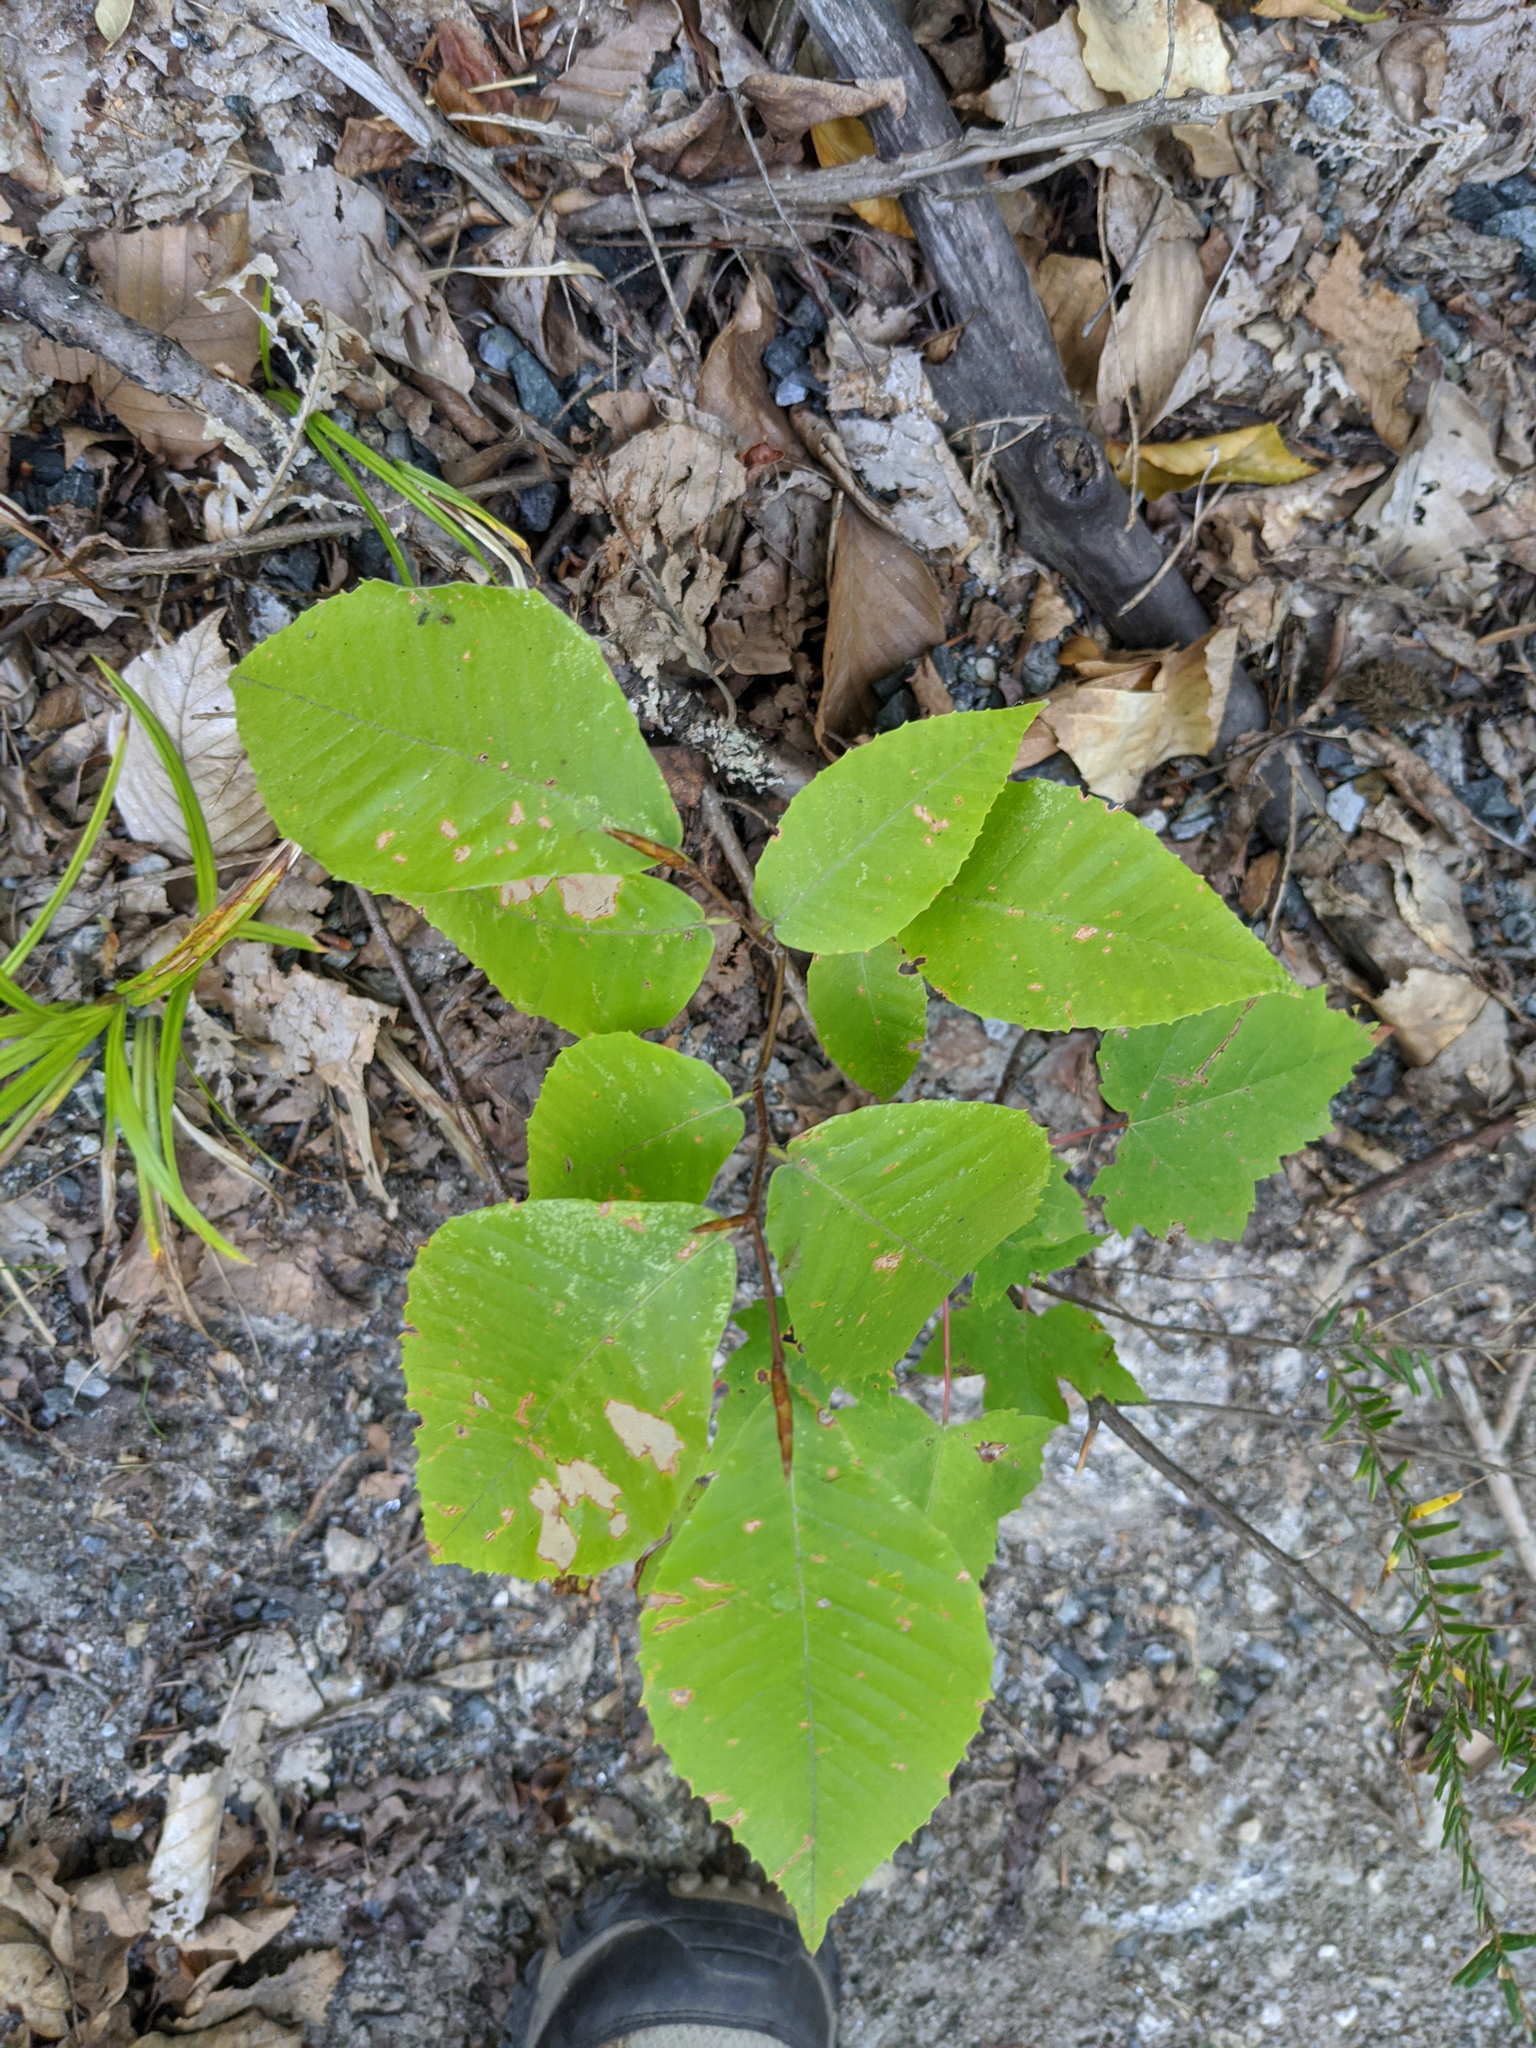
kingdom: Plantae
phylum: Tracheophyta
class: Magnoliopsida
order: Fagales
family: Fagaceae
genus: Fagus
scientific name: Fagus grandifolia
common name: American beech
